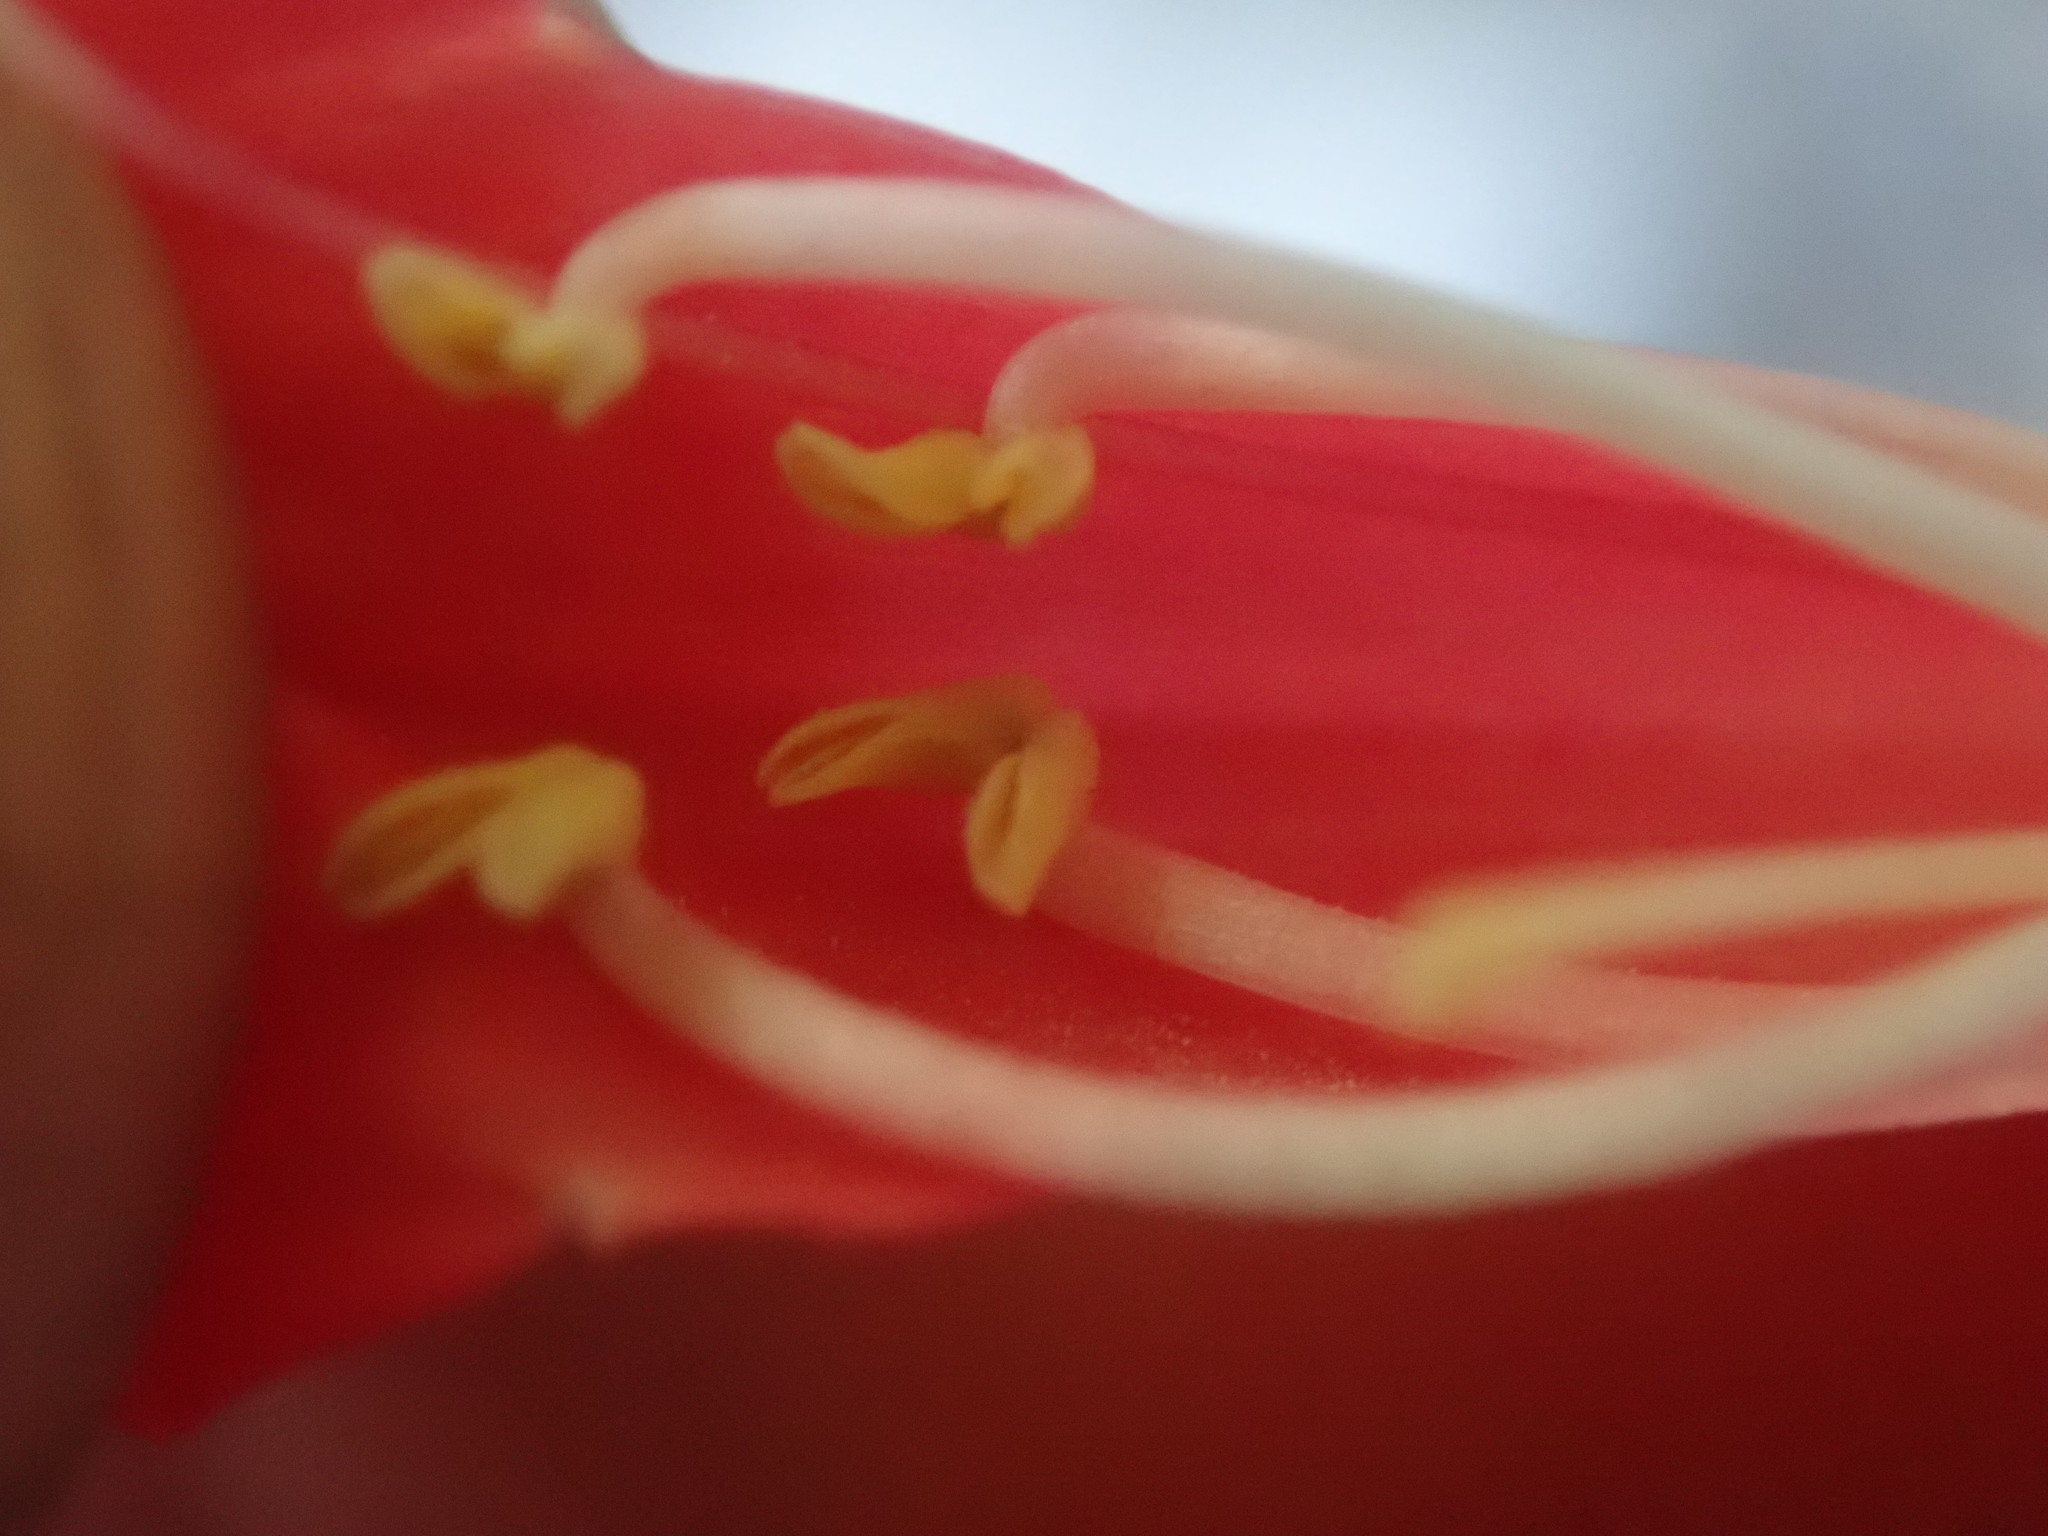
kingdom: Plantae
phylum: Tracheophyta
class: Magnoliopsida
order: Lamiales
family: Plantaginaceae
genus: Penstemon
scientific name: Penstemon eatonii
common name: Eaton's penstemon
